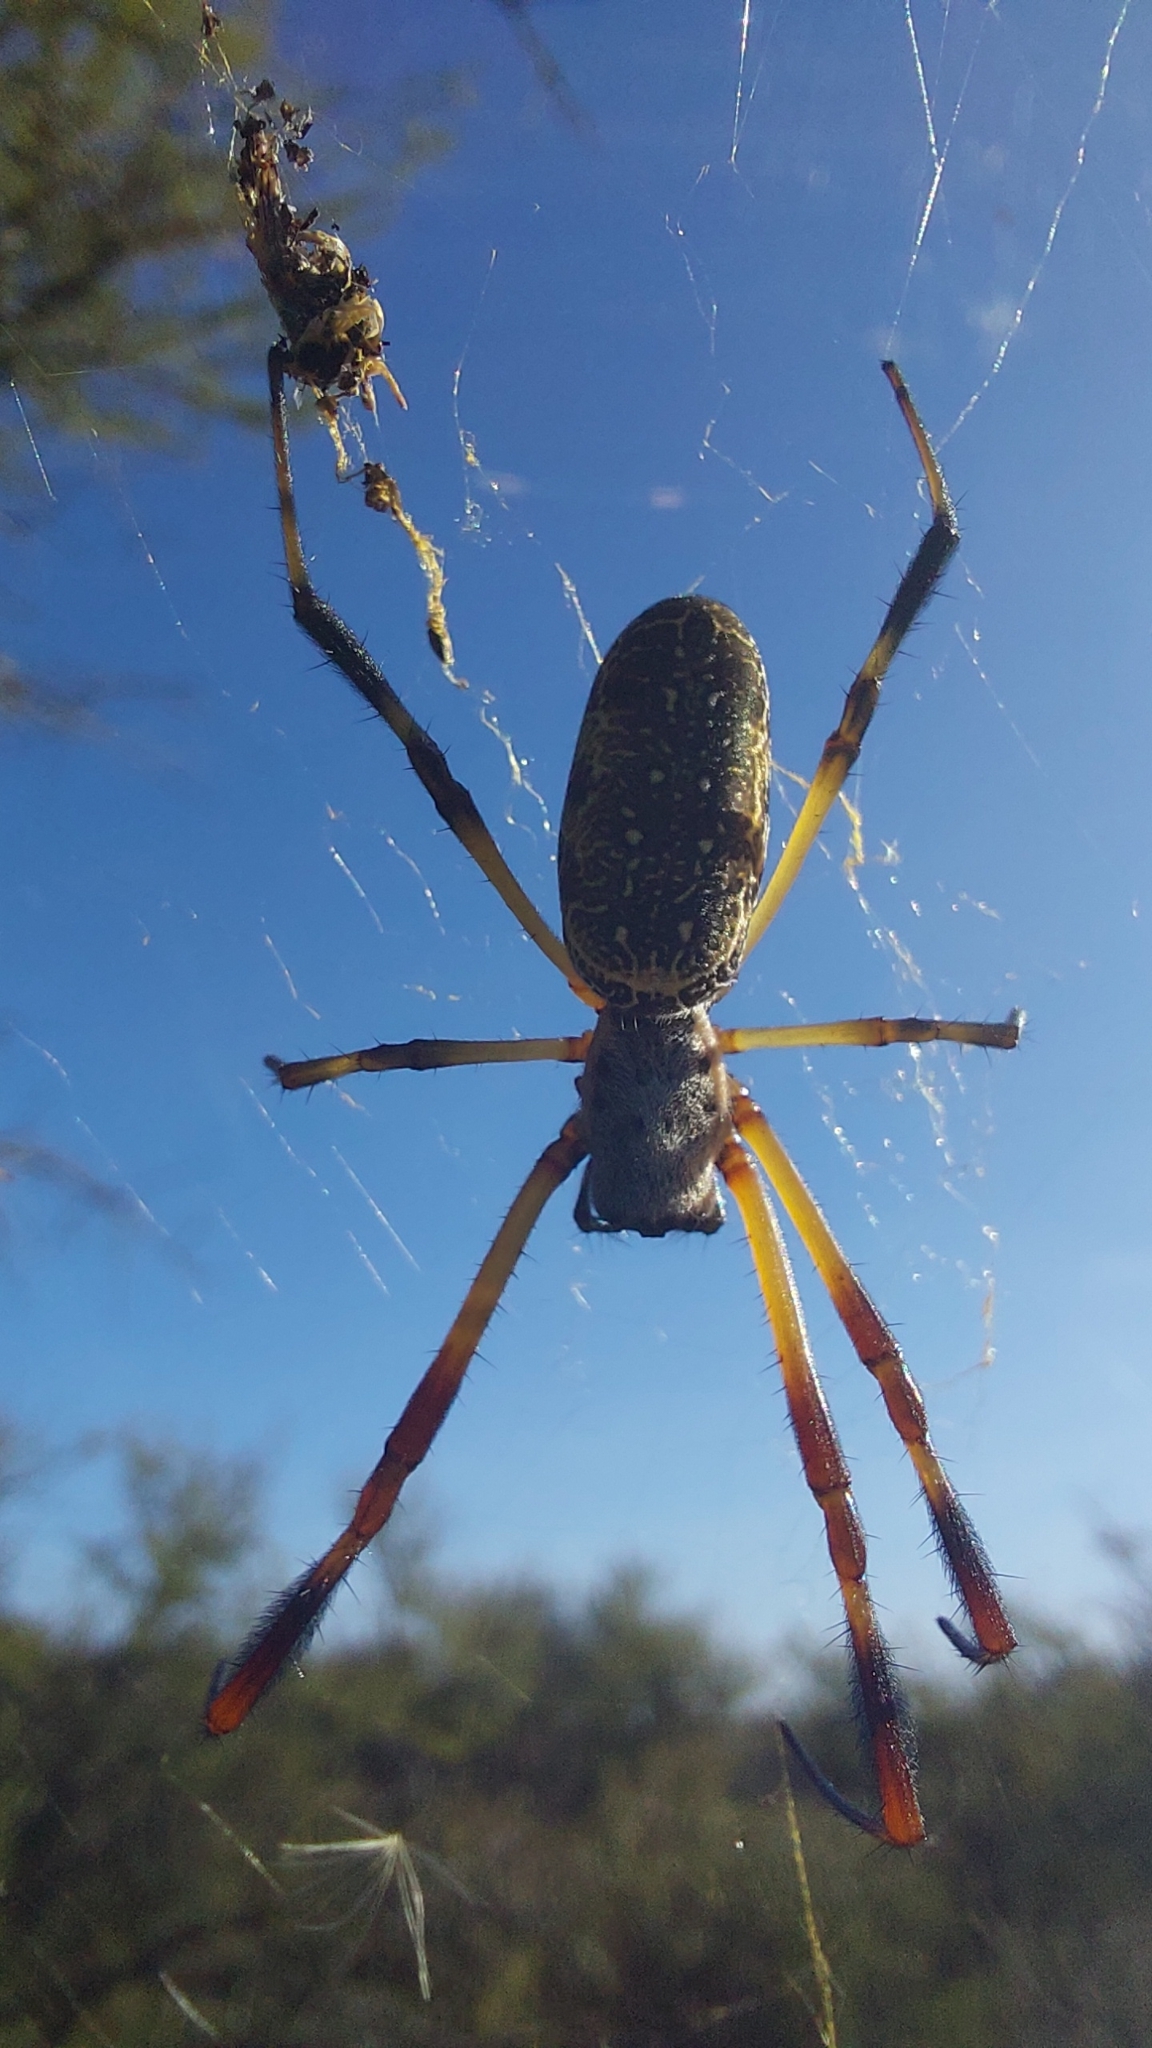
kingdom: Animalia
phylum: Arthropoda
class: Arachnida
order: Araneae
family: Araneidae
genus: Trichonephila
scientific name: Trichonephila sexpunctata
